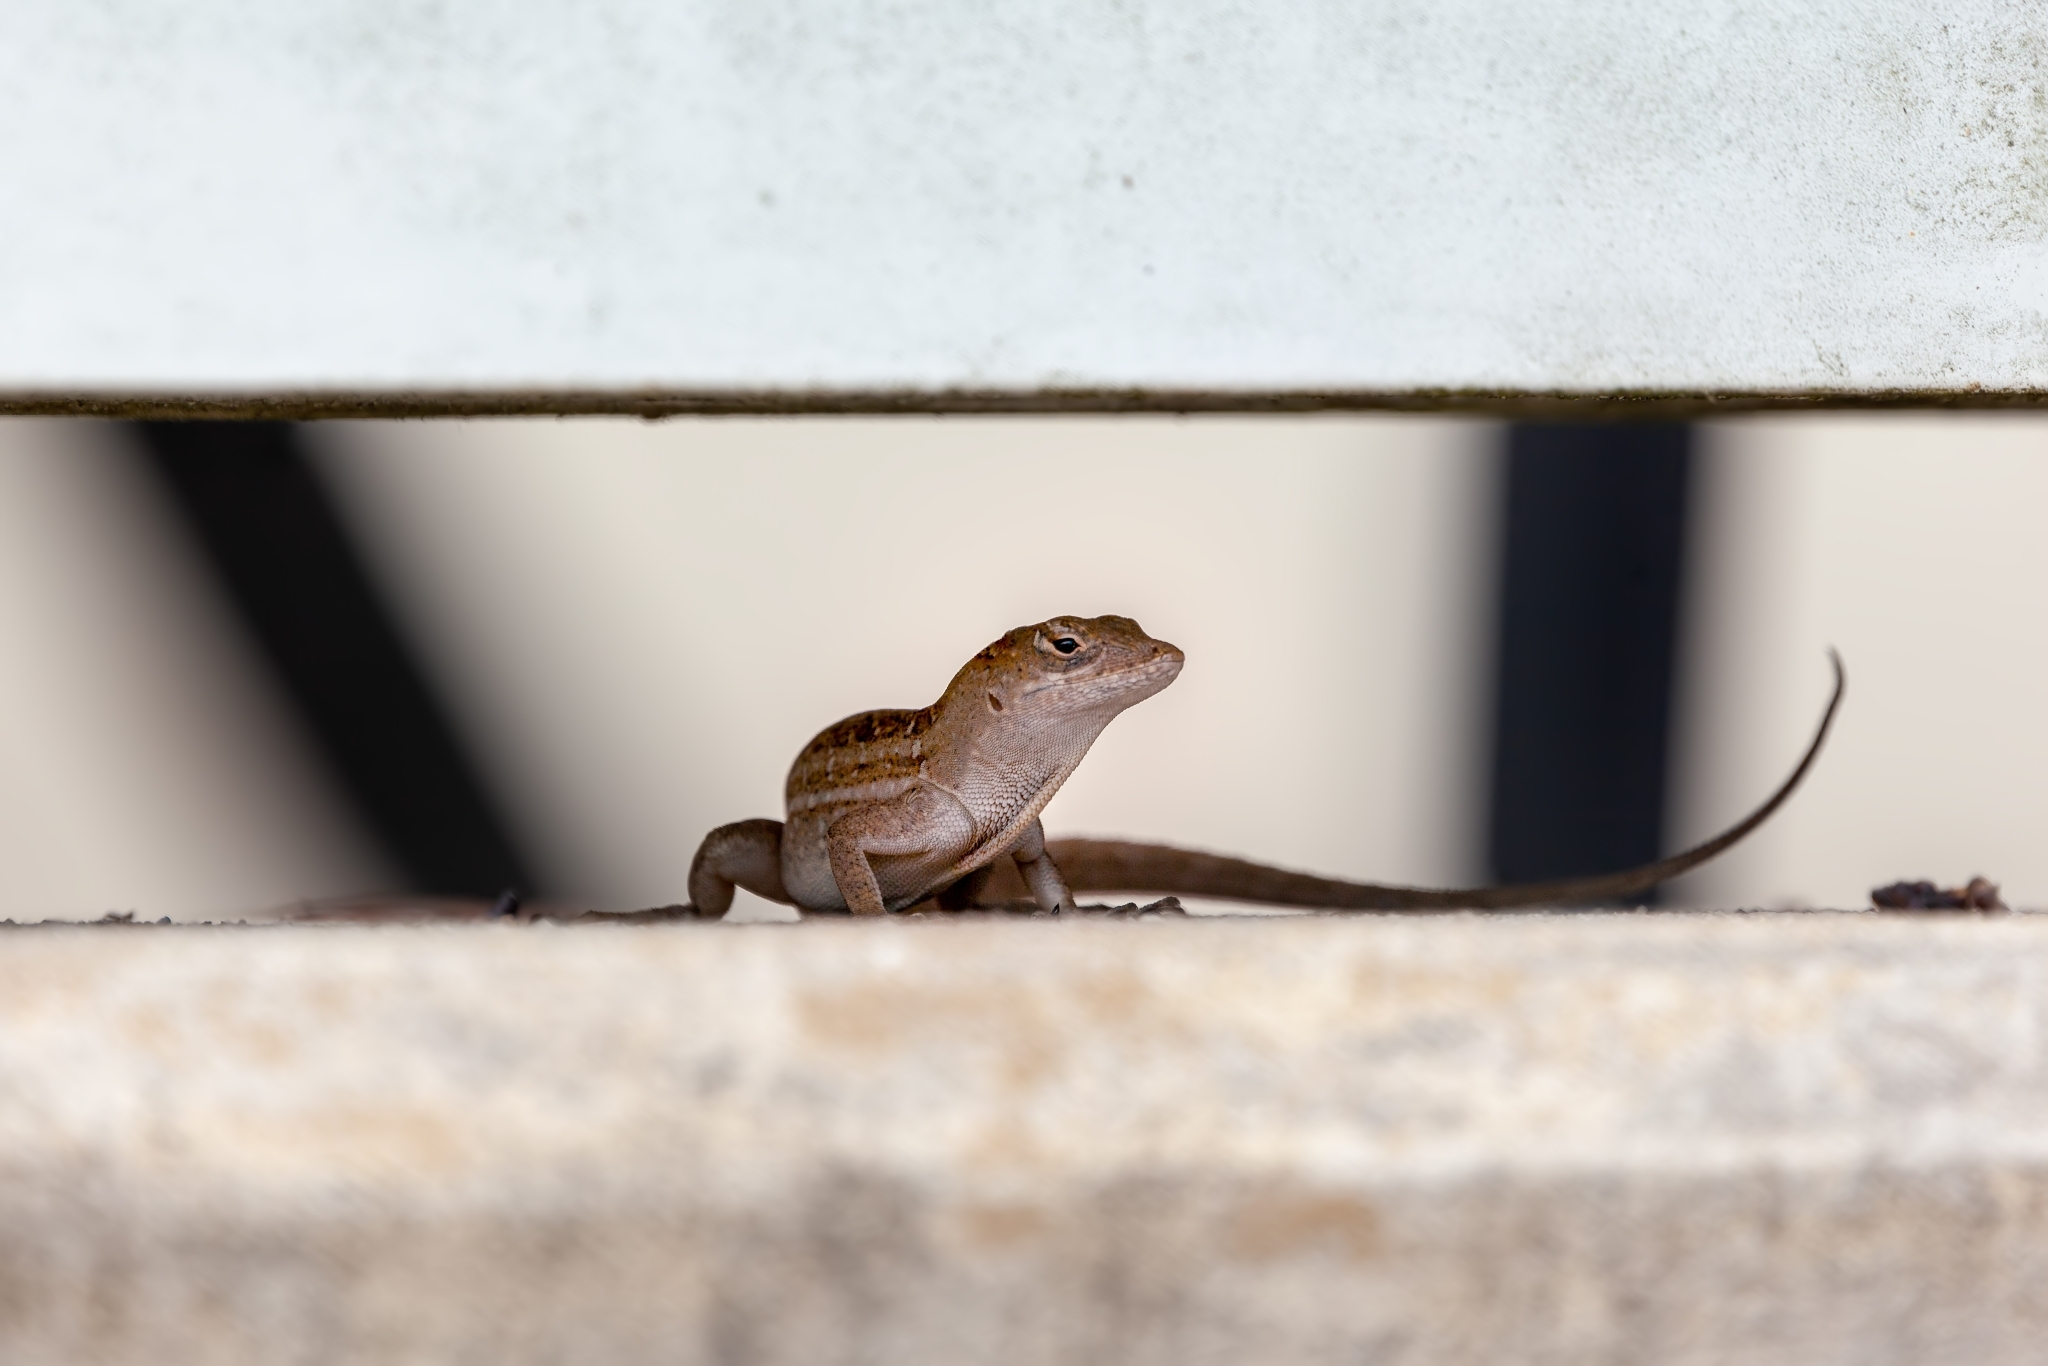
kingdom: Animalia
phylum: Chordata
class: Squamata
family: Dactyloidae
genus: Anolis
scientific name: Anolis sagrei
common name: Brown anole
